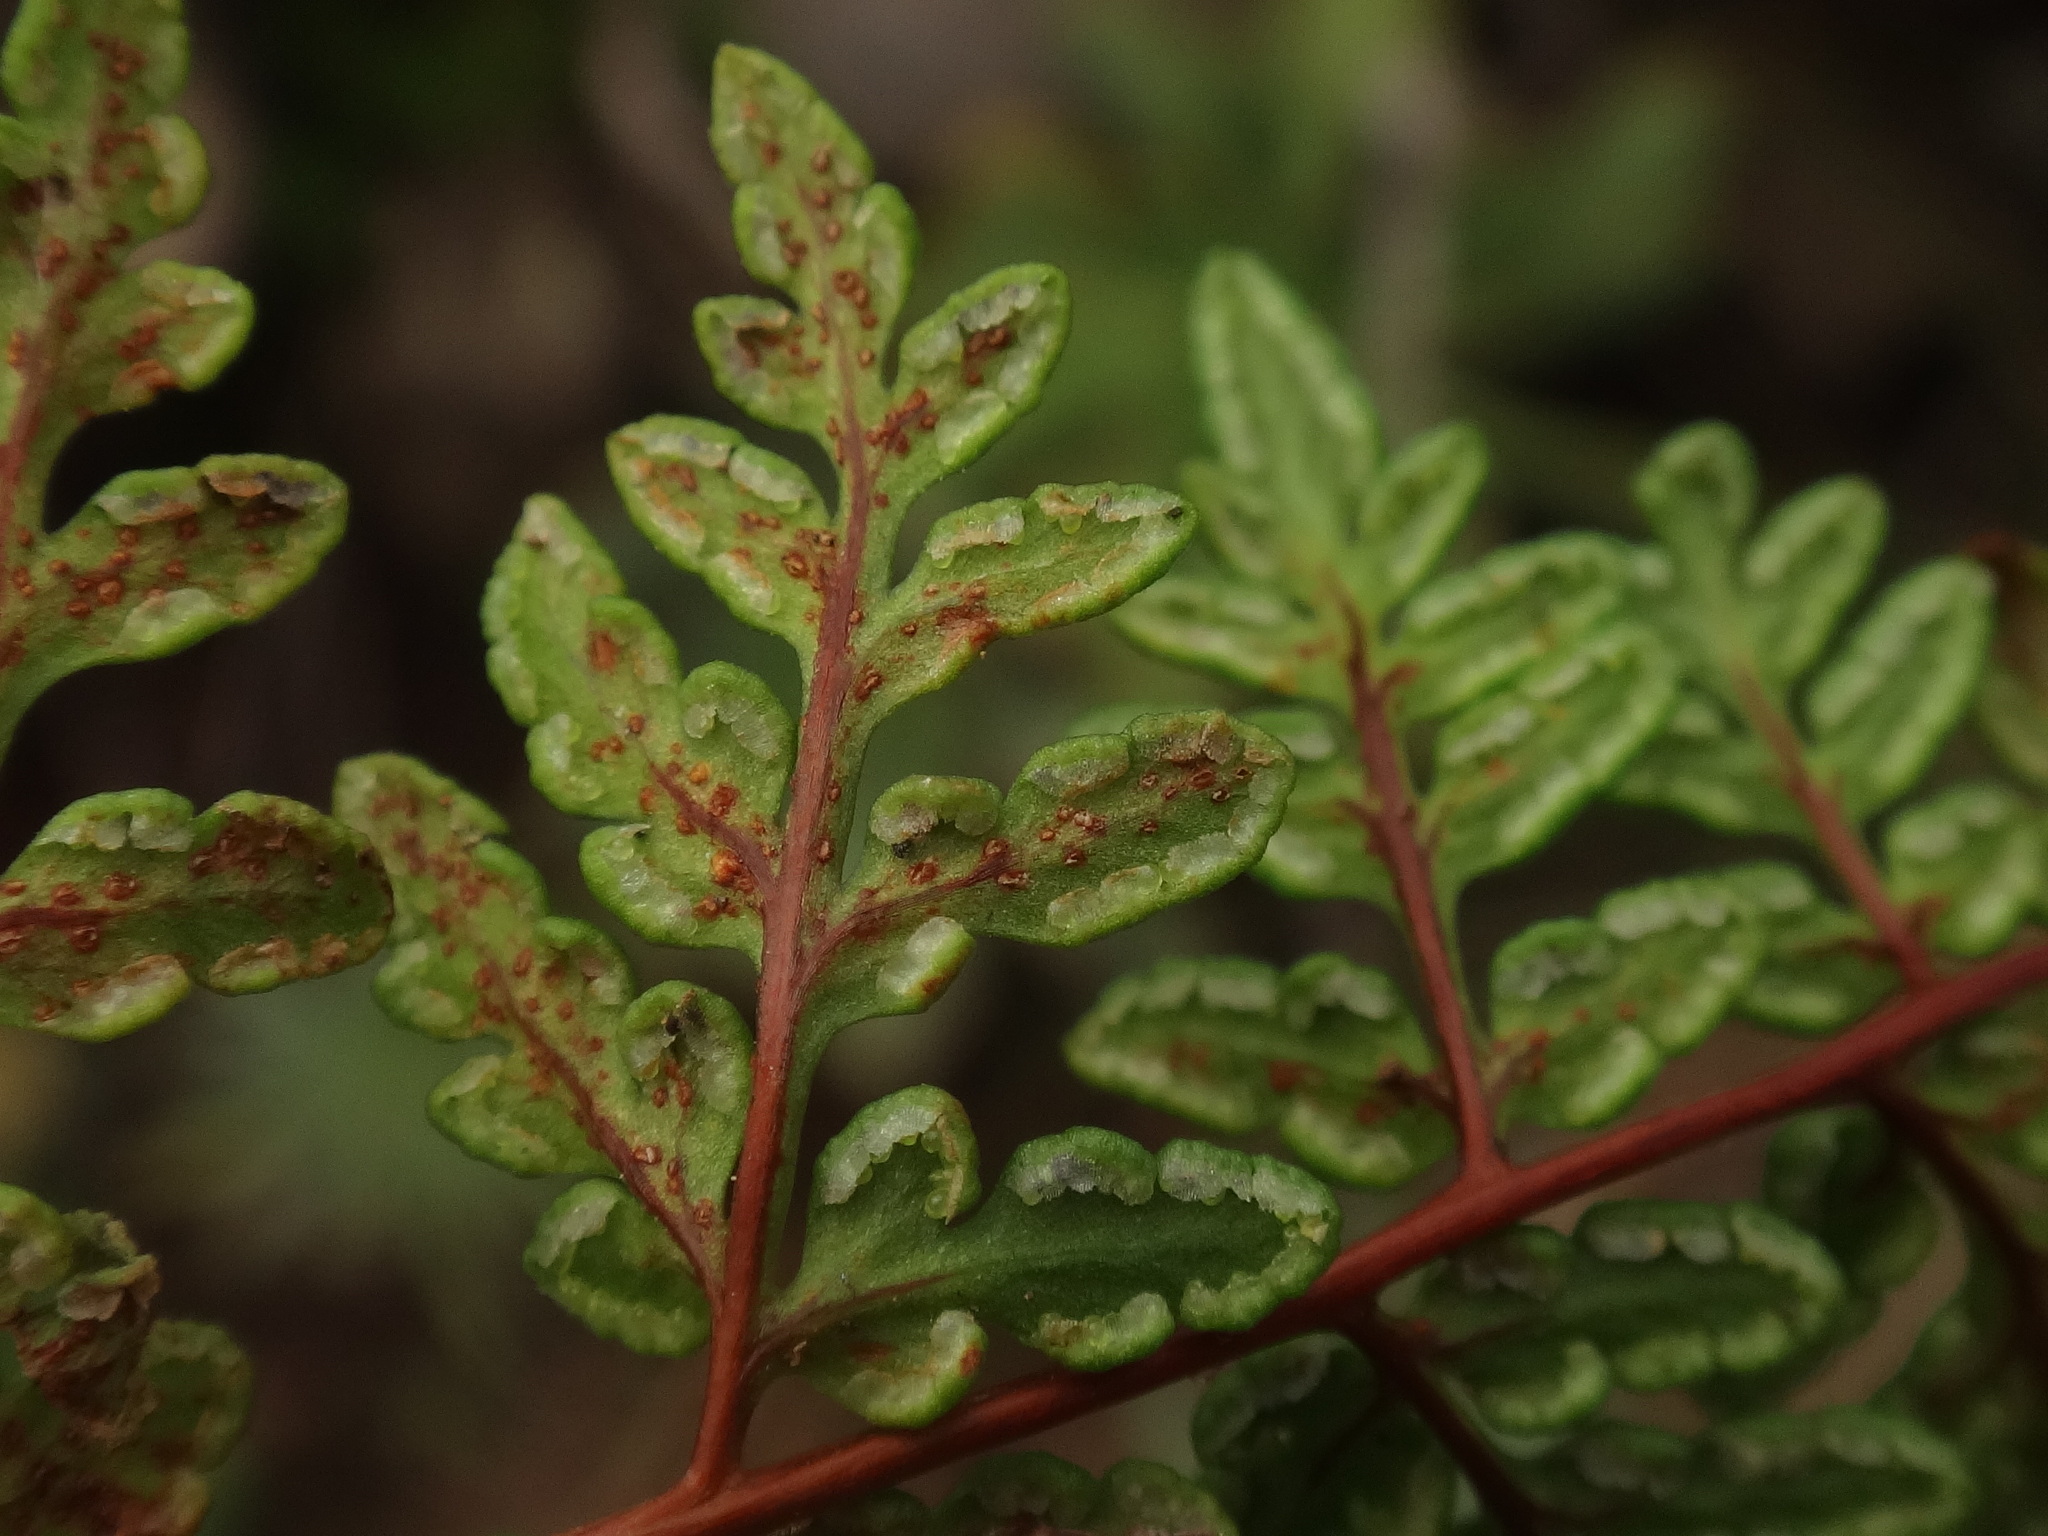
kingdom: Plantae
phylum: Tracheophyta
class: Polypodiopsida
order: Polypodiales
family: Pteridaceae
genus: Oeosporangium
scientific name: Oeosporangium guanchicum
